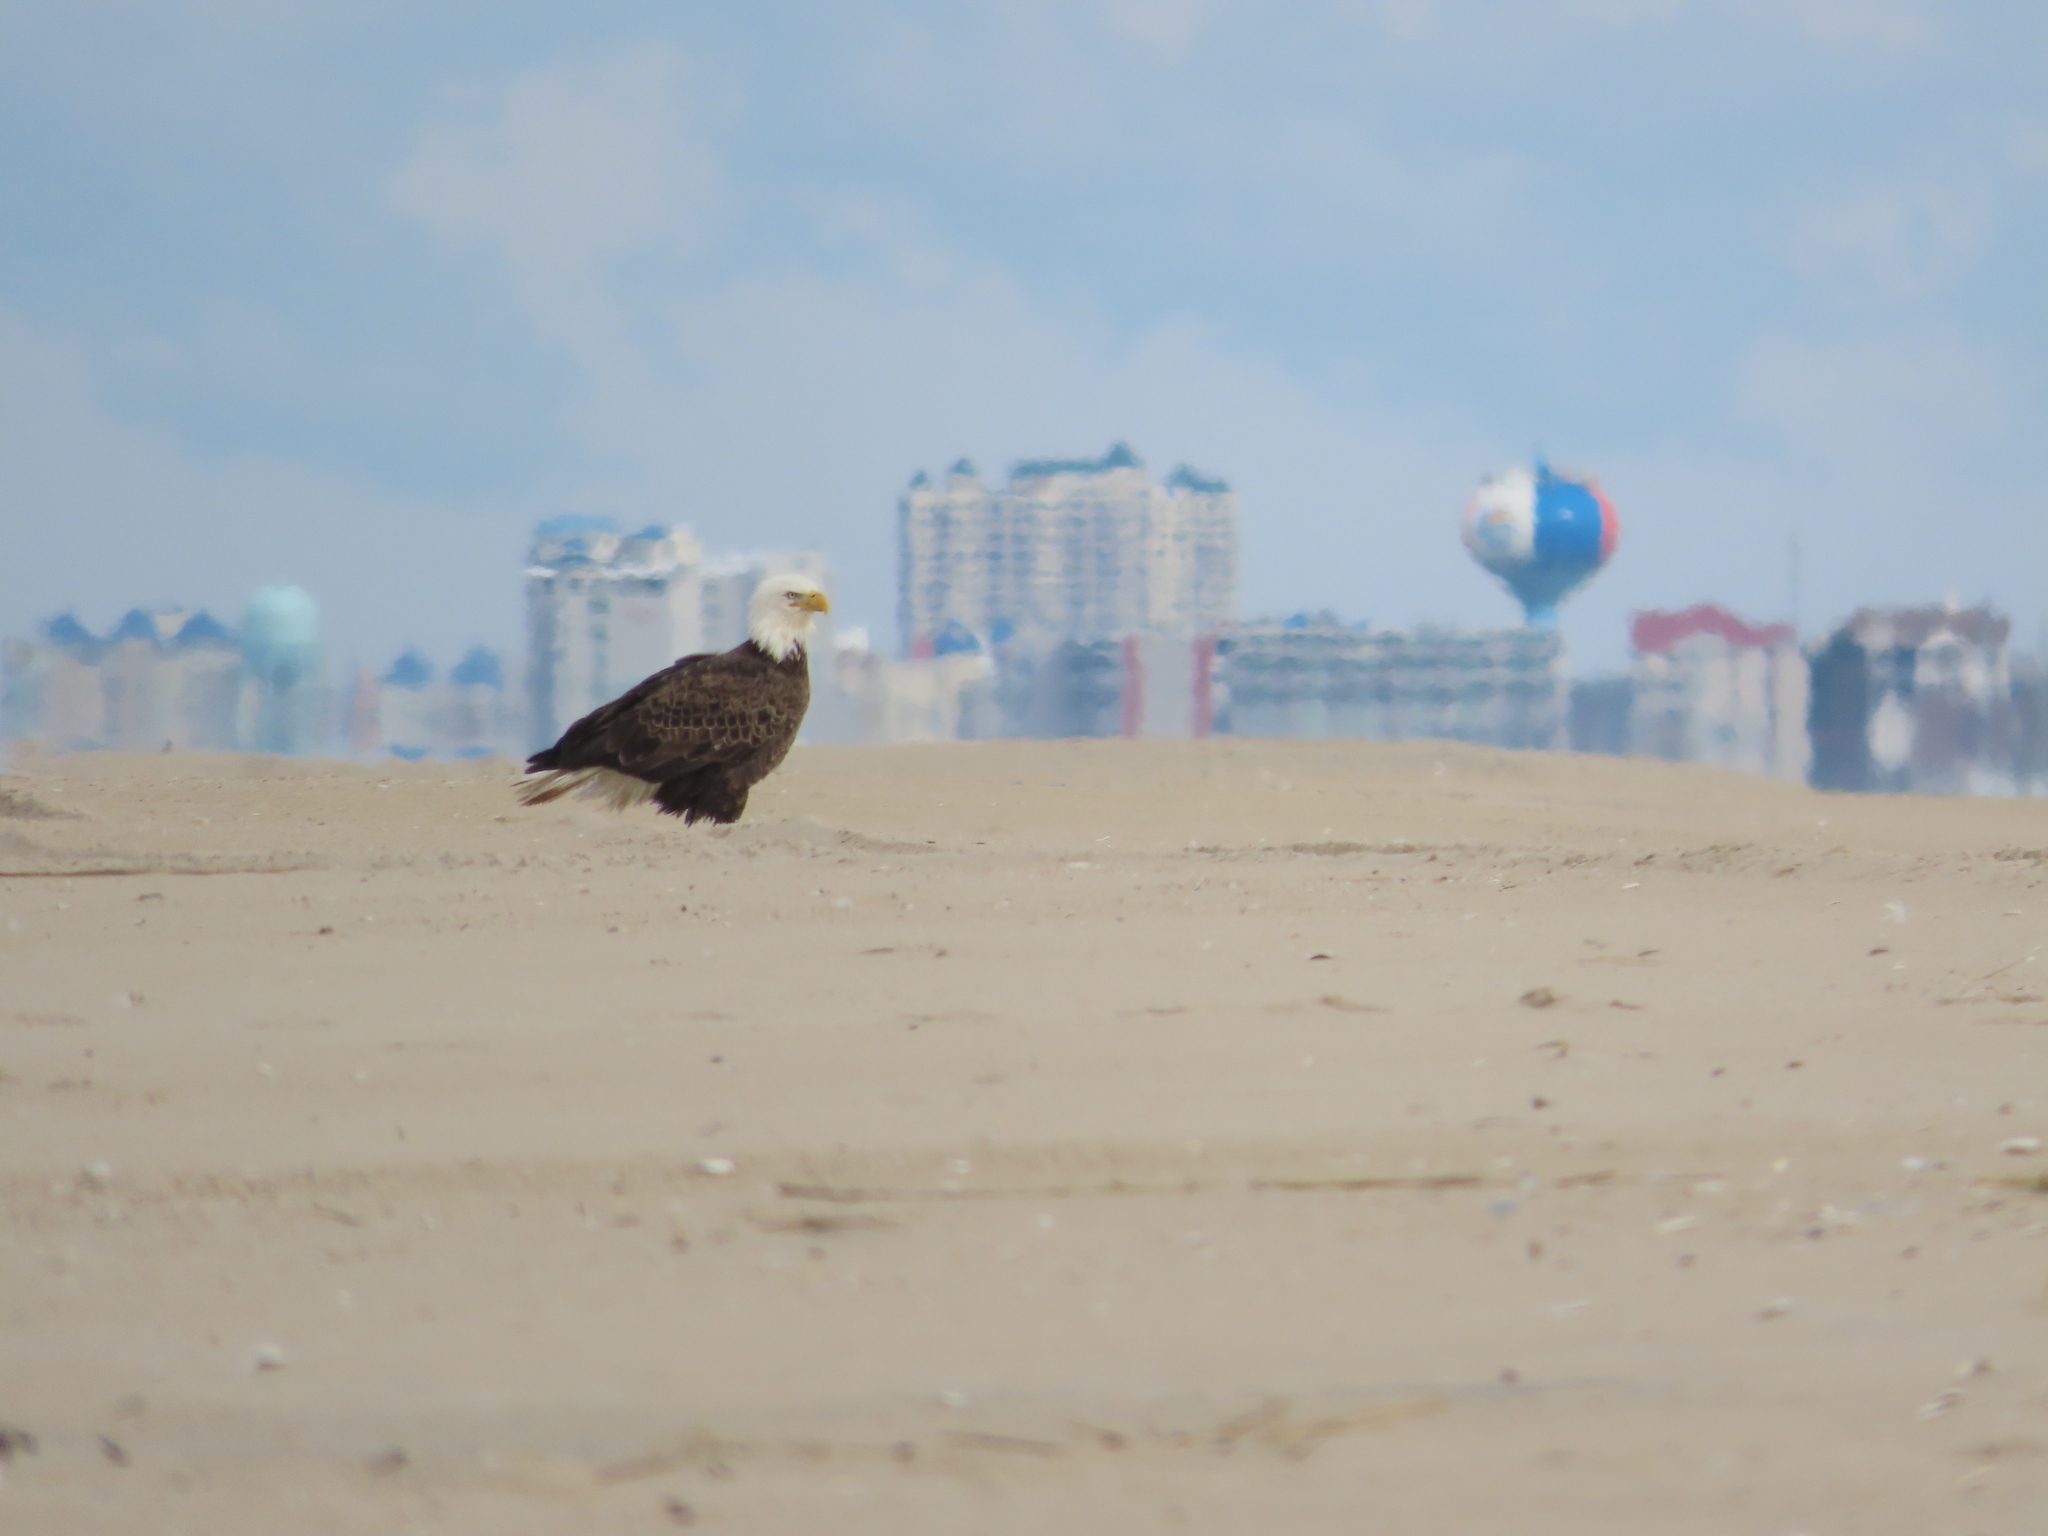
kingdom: Animalia
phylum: Chordata
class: Aves
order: Accipitriformes
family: Accipitridae
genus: Haliaeetus
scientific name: Haliaeetus leucocephalus
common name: Bald eagle
